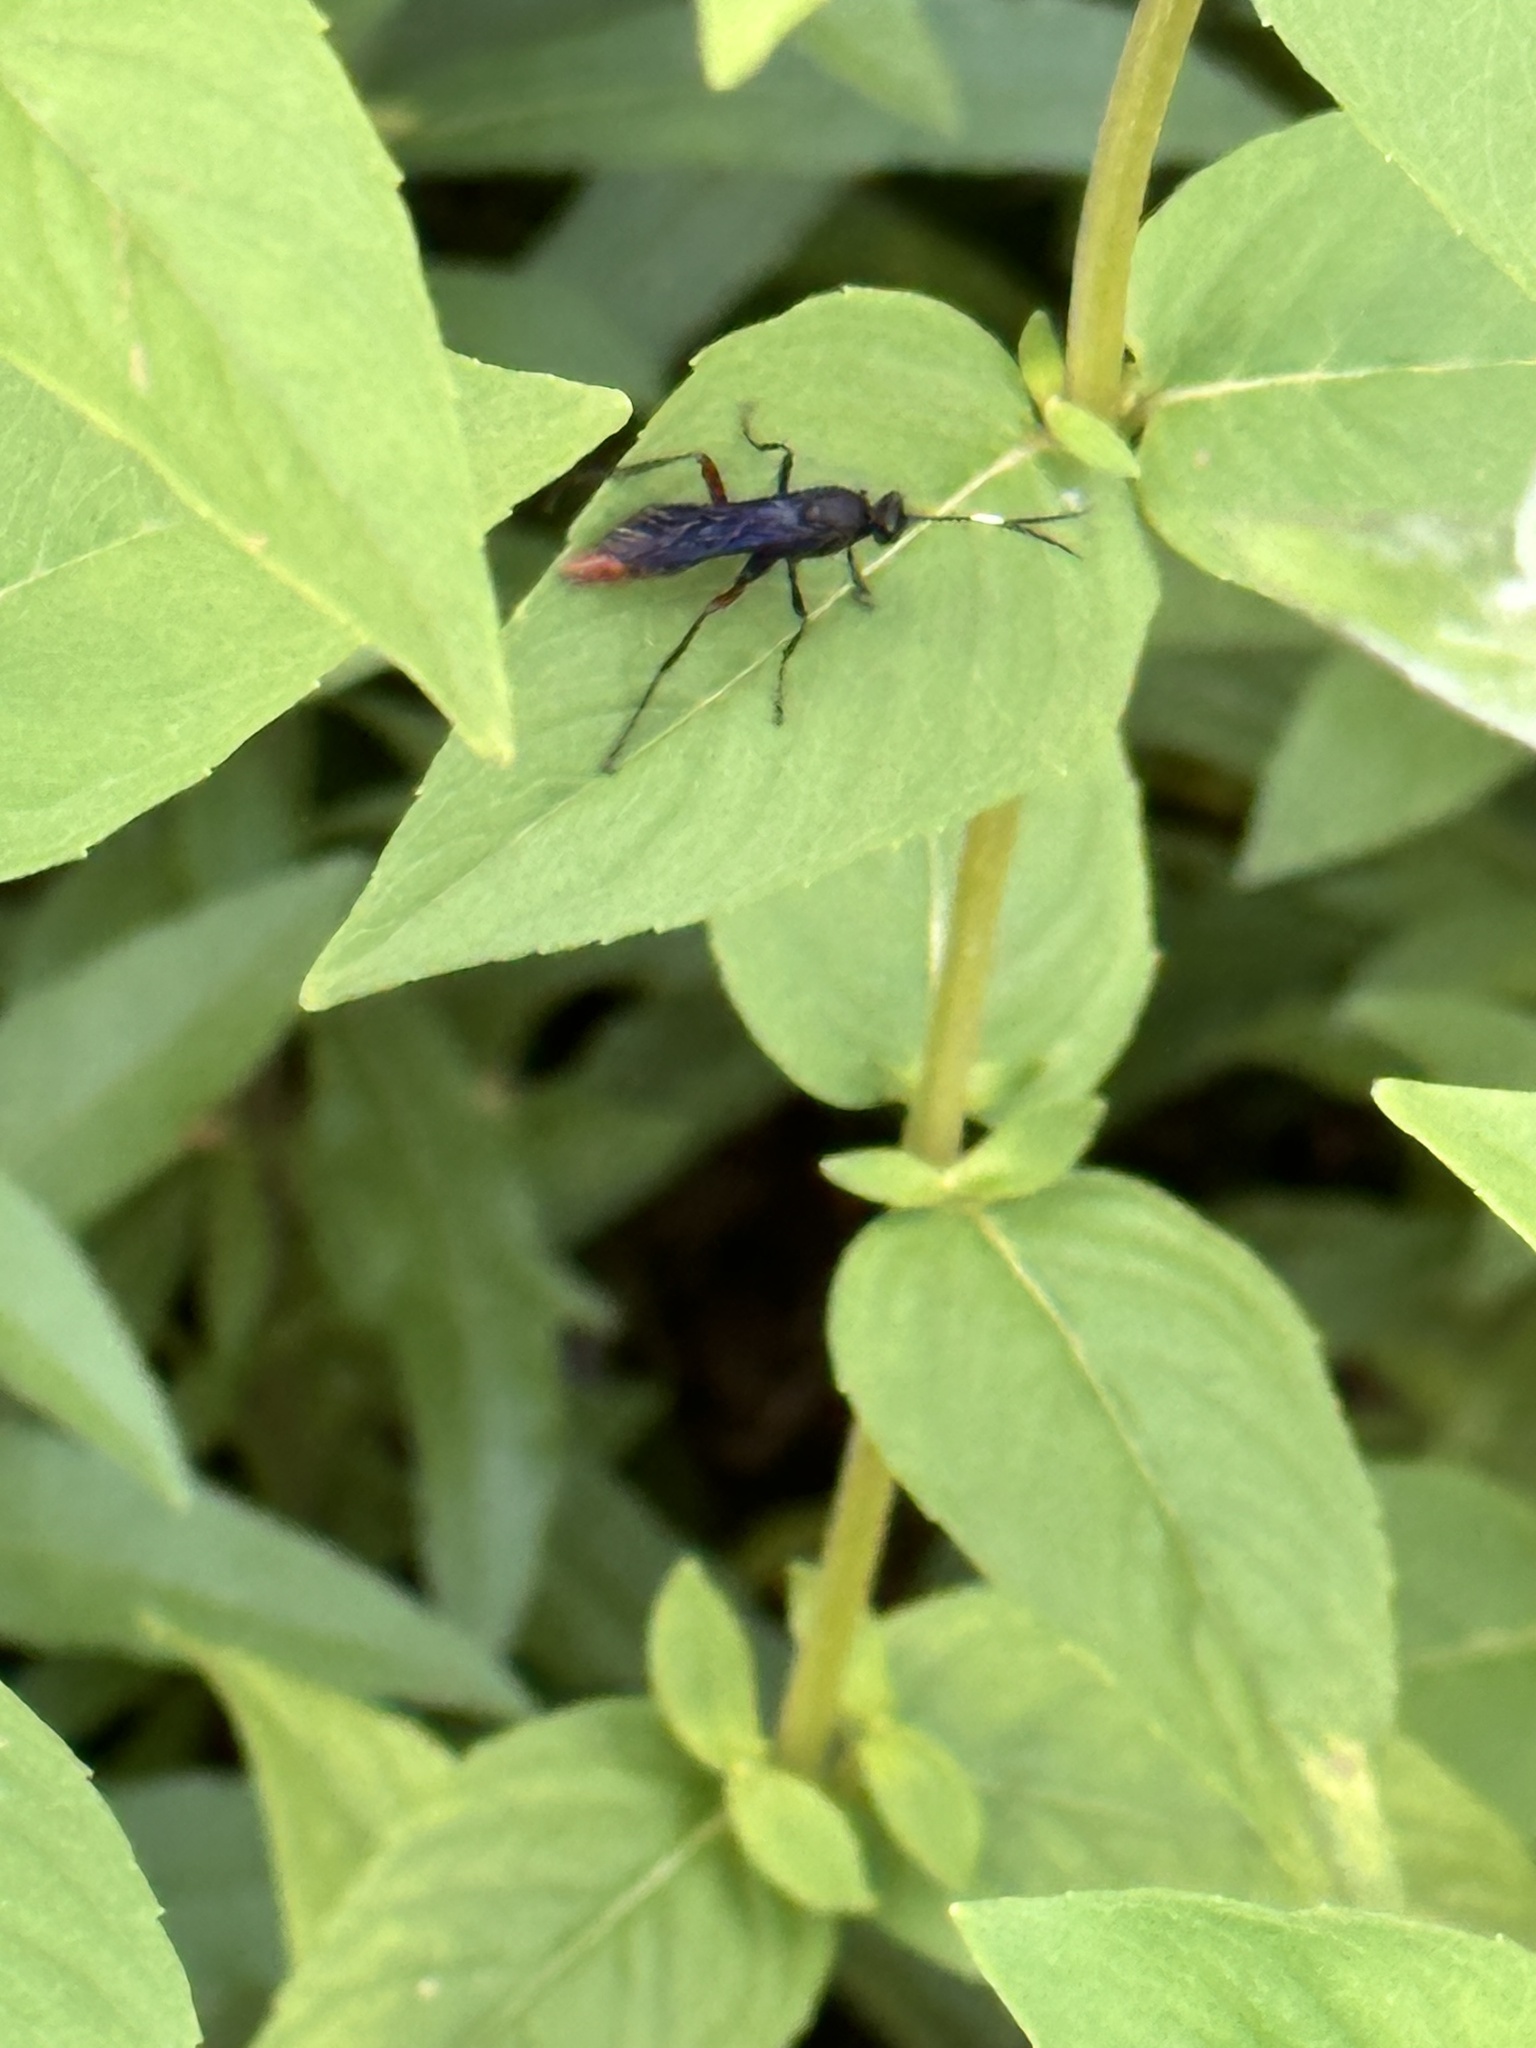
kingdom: Animalia
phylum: Arthropoda
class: Insecta
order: Hymenoptera
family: Ichneumonidae
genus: Limonethe
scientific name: Limonethe maurator
